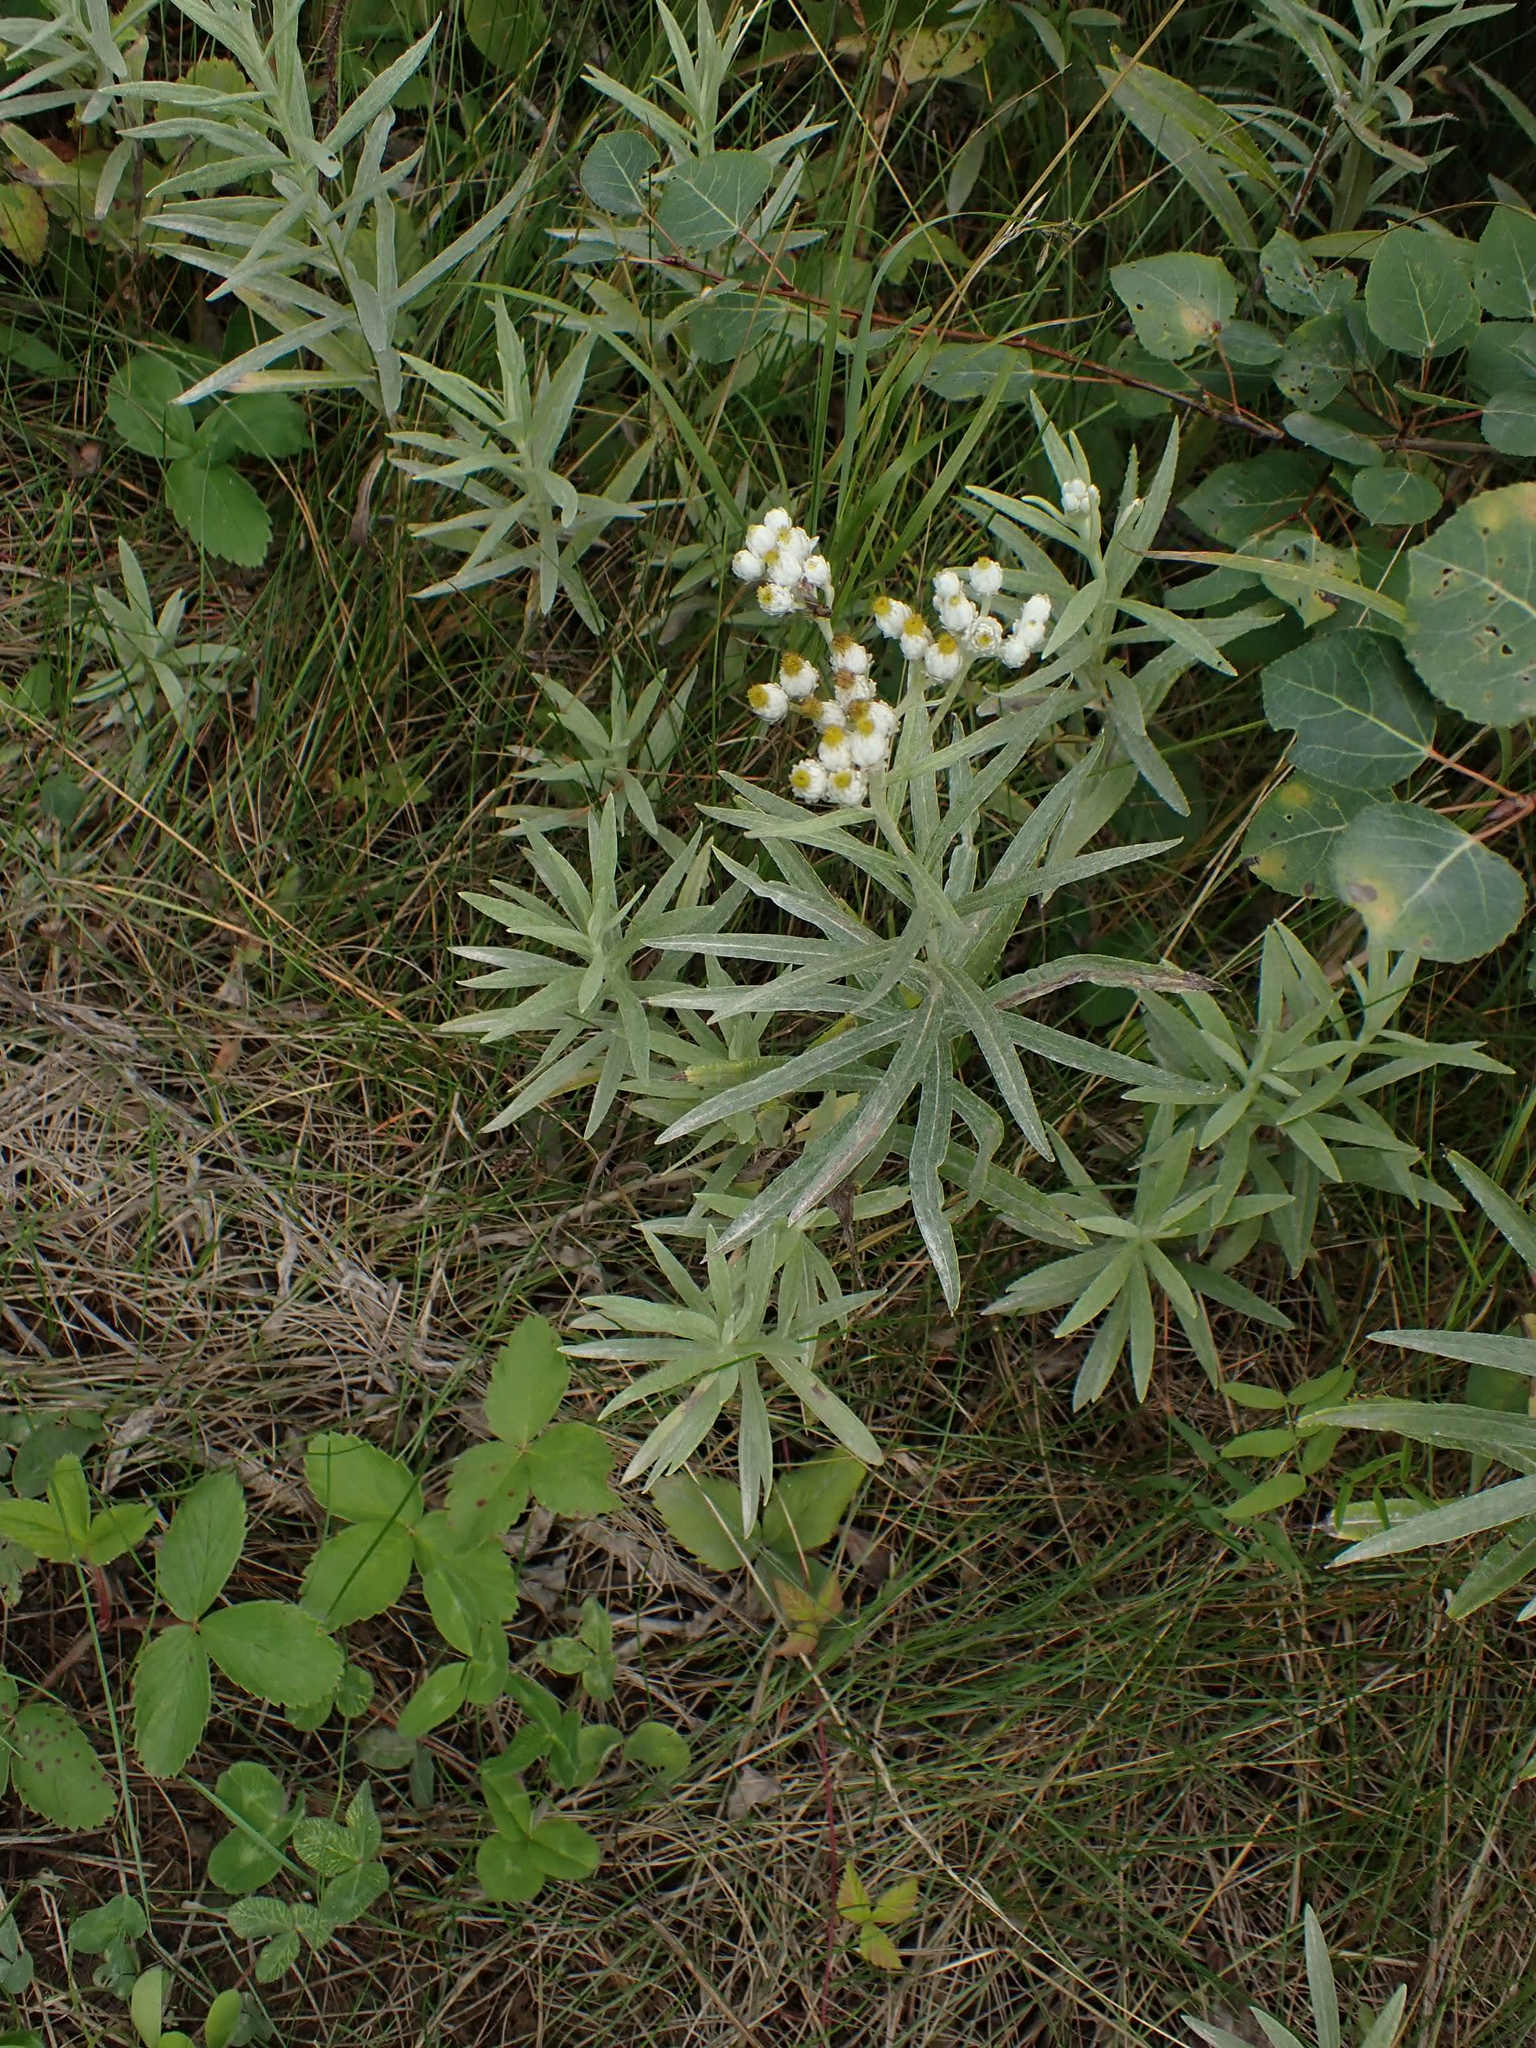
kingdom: Plantae
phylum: Tracheophyta
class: Magnoliopsida
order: Asterales
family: Asteraceae
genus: Anaphalis
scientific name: Anaphalis margaritacea
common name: Pearly everlasting
